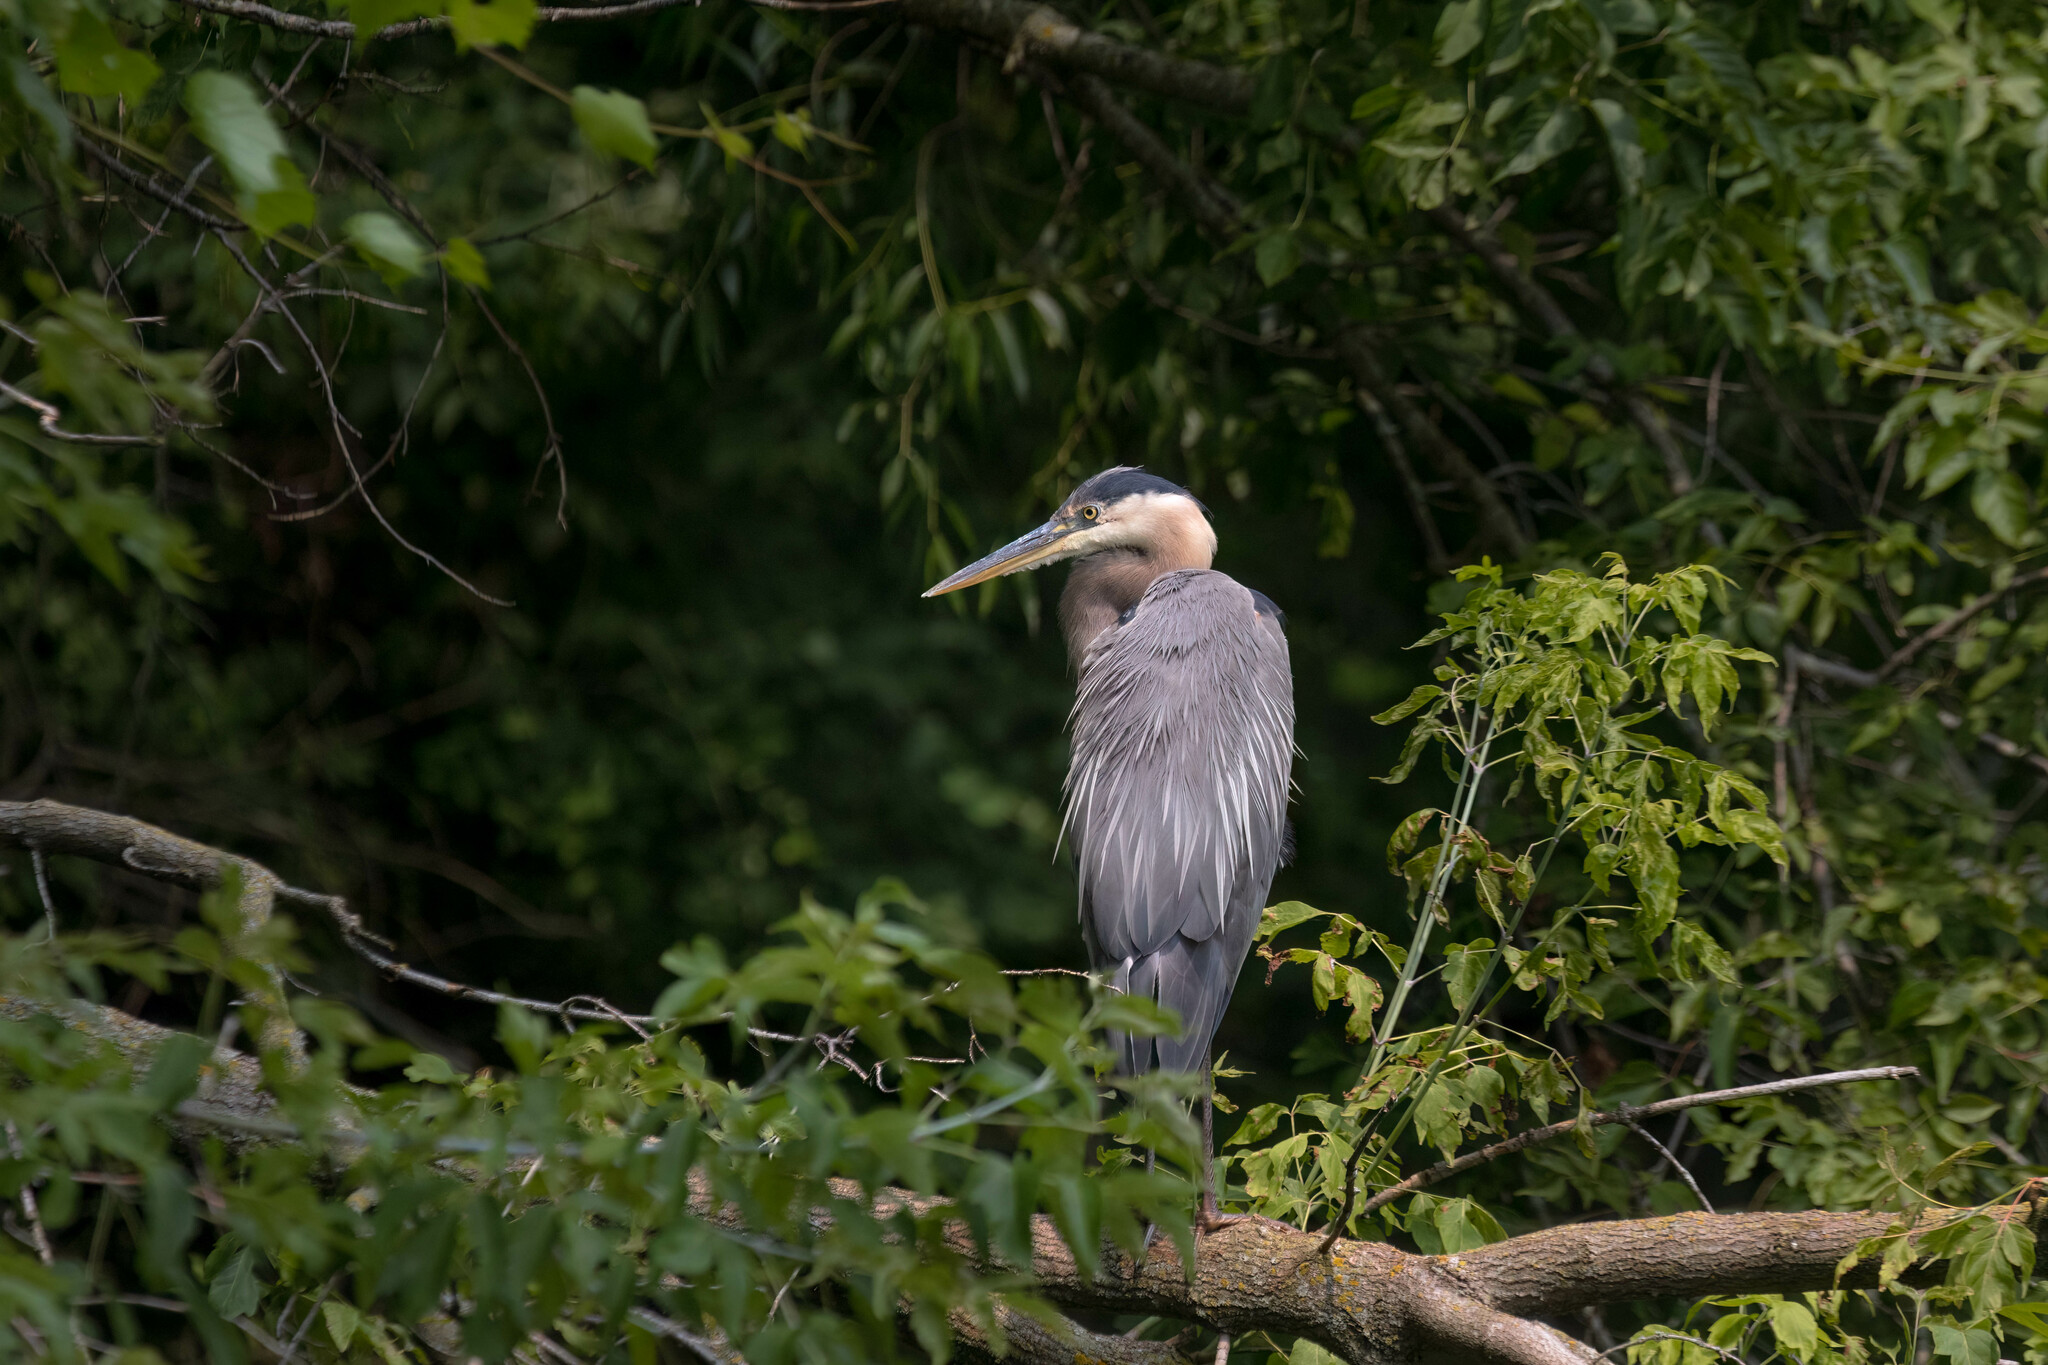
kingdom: Animalia
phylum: Chordata
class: Aves
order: Pelecaniformes
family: Ardeidae
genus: Ardea
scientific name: Ardea herodias
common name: Great blue heron
